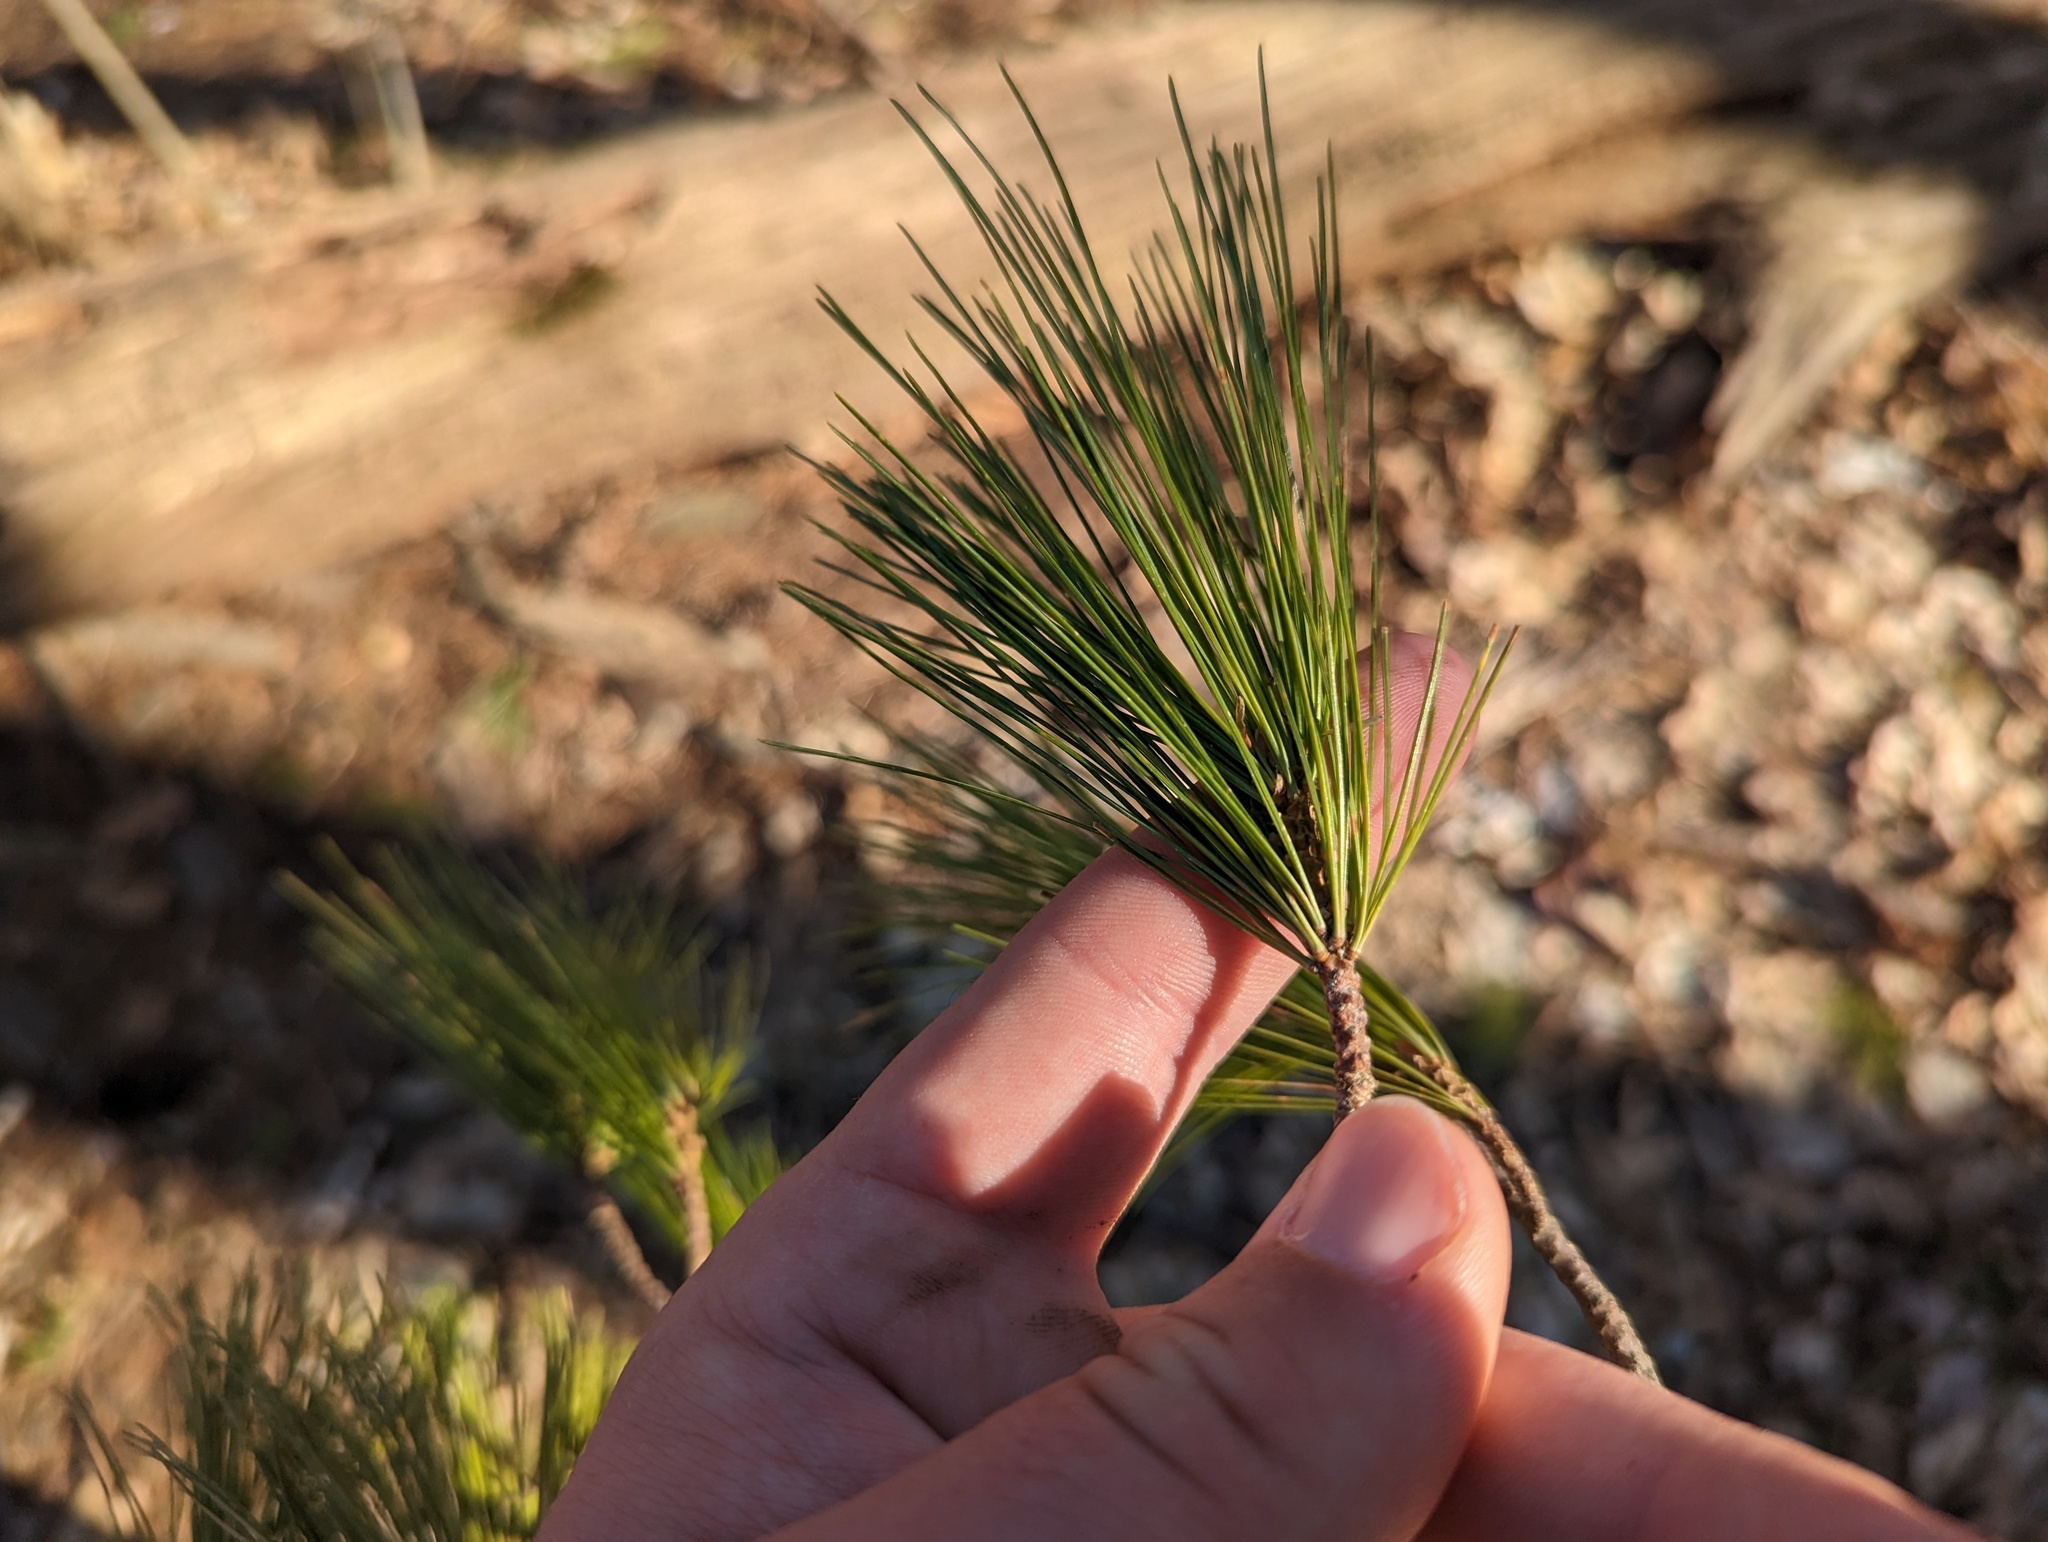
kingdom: Plantae
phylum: Tracheophyta
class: Pinopsida
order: Pinales
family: Pinaceae
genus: Pinus
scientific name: Pinus strobus
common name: Weymouth pine
